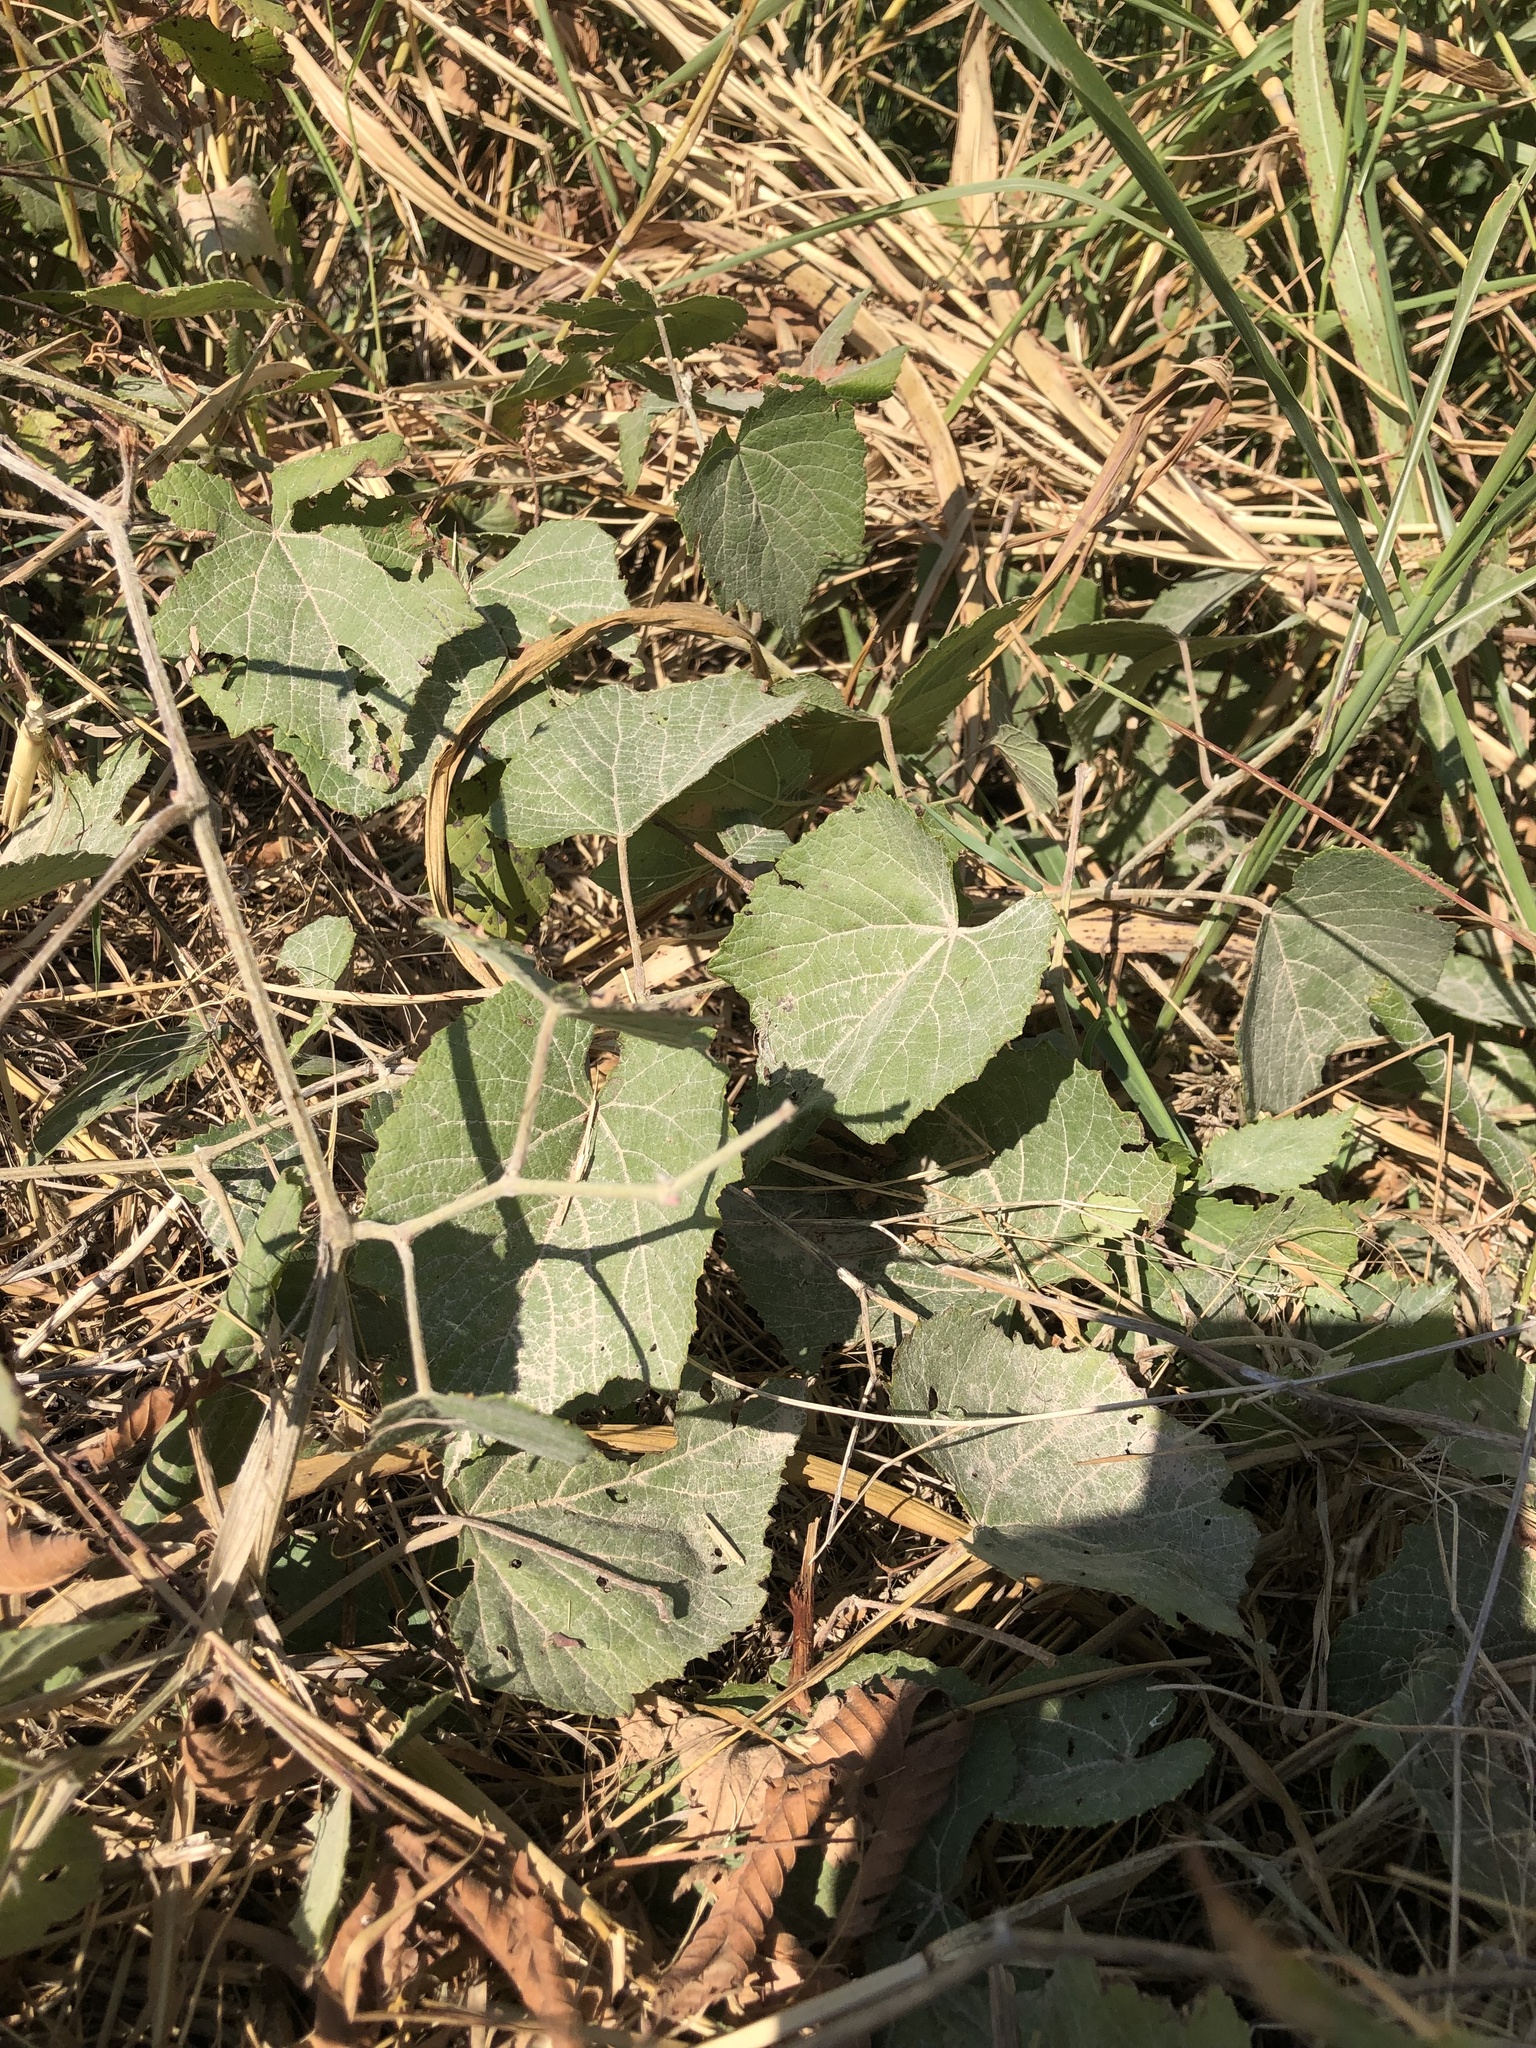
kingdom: Plantae
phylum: Tracheophyta
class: Magnoliopsida
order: Vitales
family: Vitaceae
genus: Vitis
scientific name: Vitis cinerea
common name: Ashy grape
